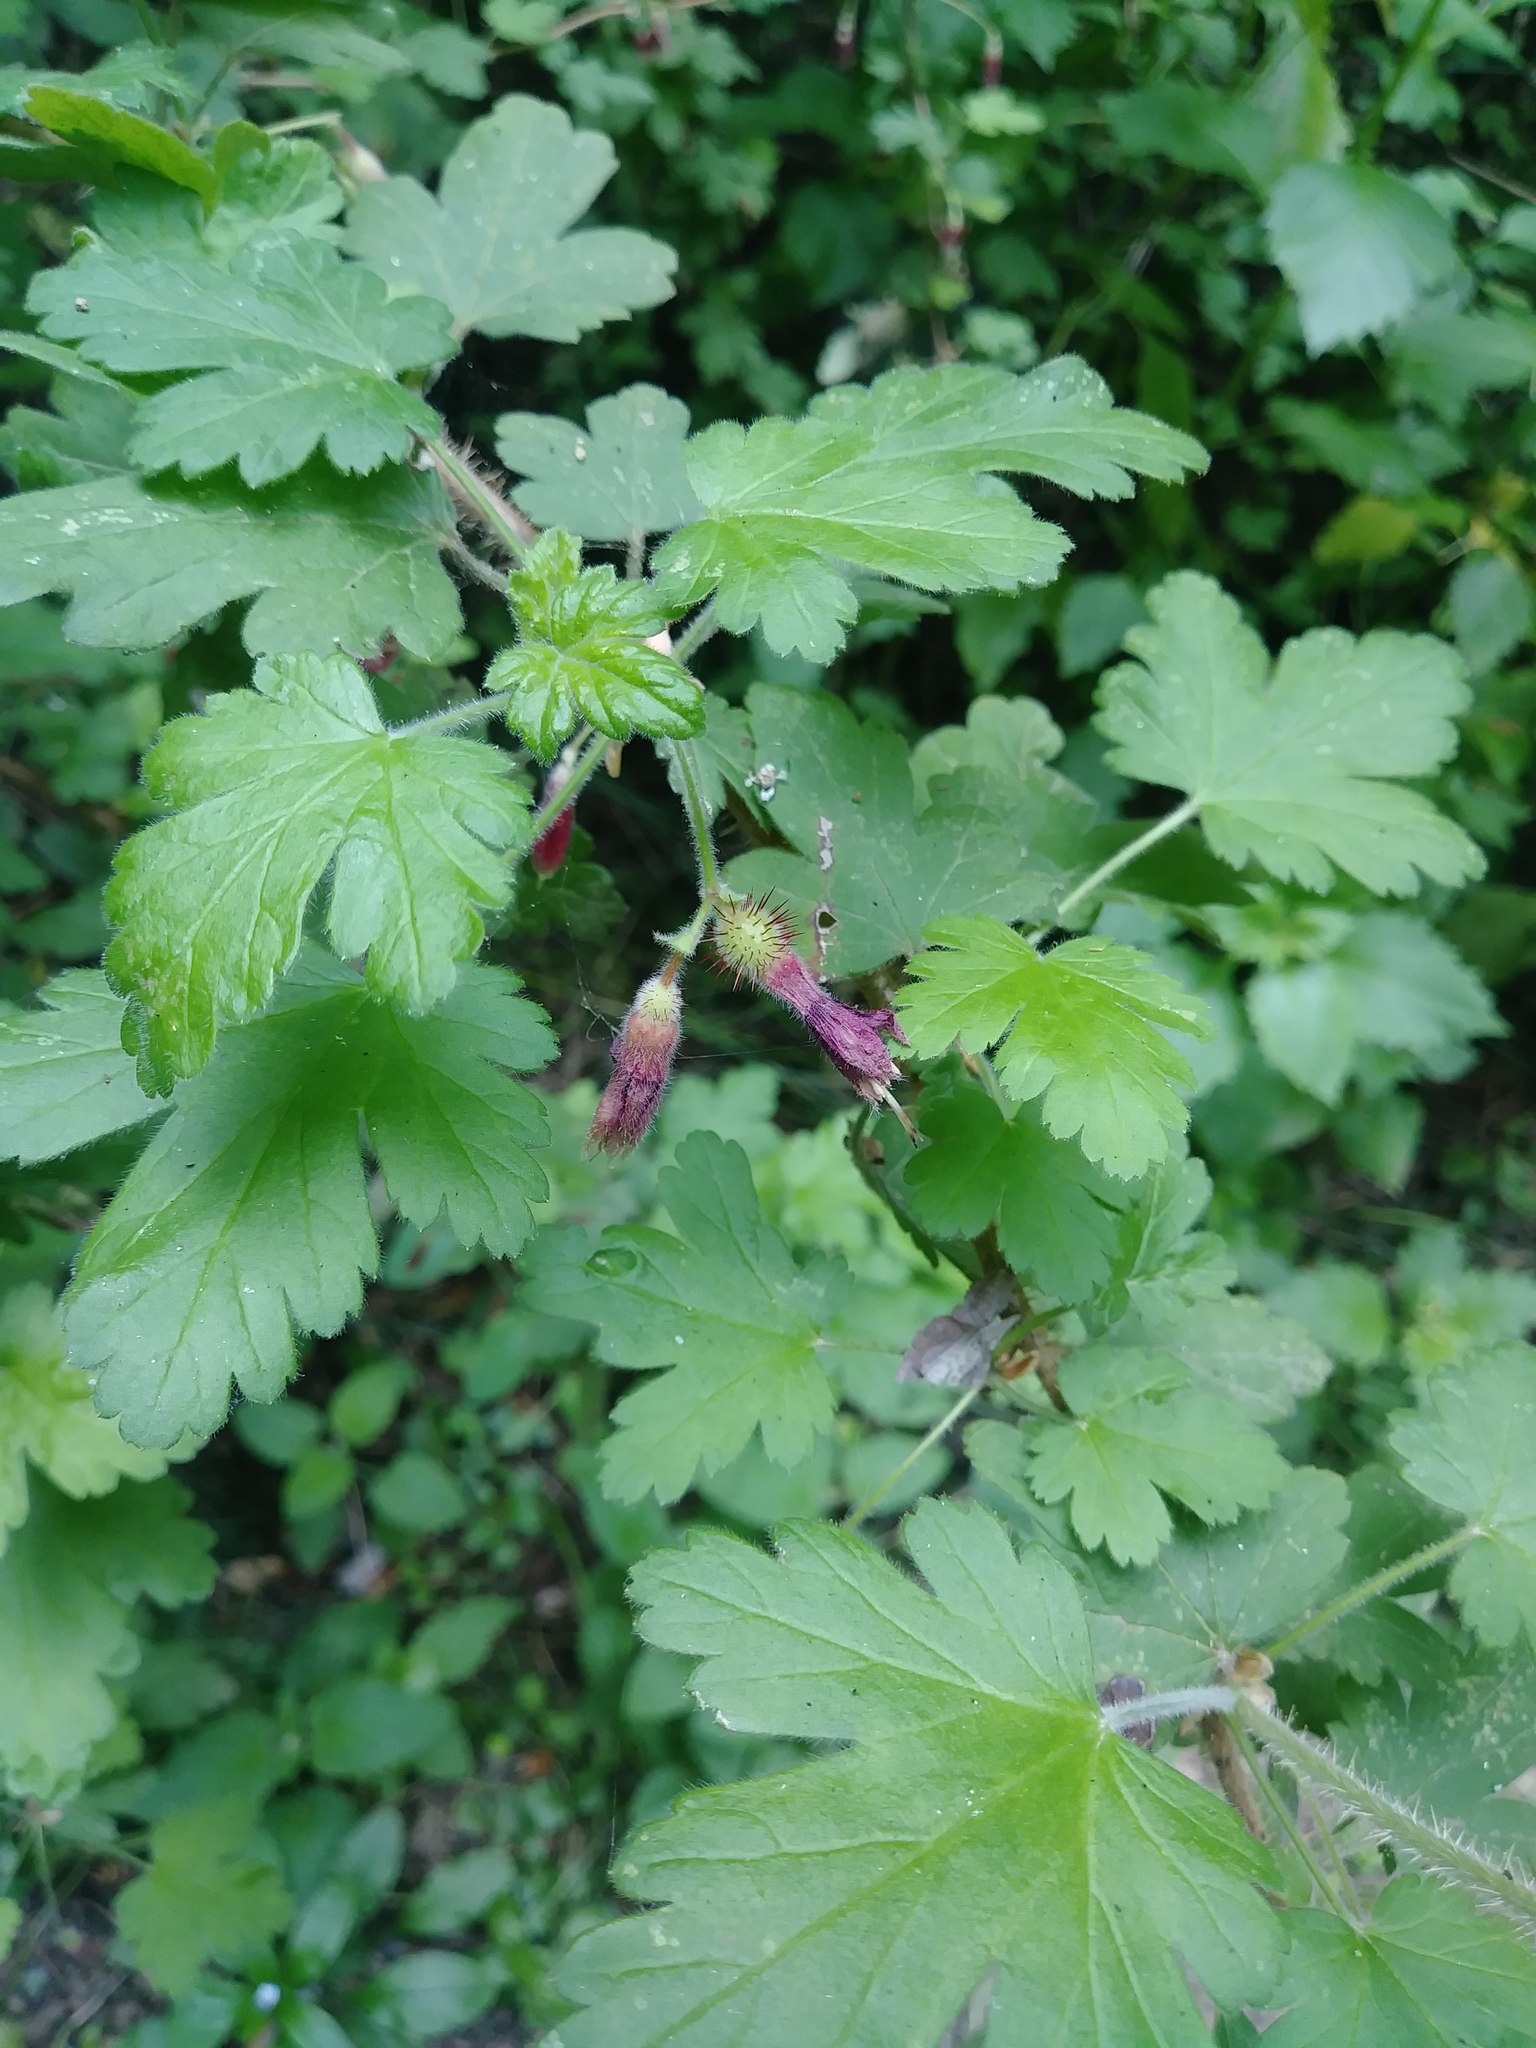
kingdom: Plantae
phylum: Tracheophyta
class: Magnoliopsida
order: Saxifragales
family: Grossulariaceae
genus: Ribes
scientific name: Ribes menziesii
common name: Canyon gooseberry
